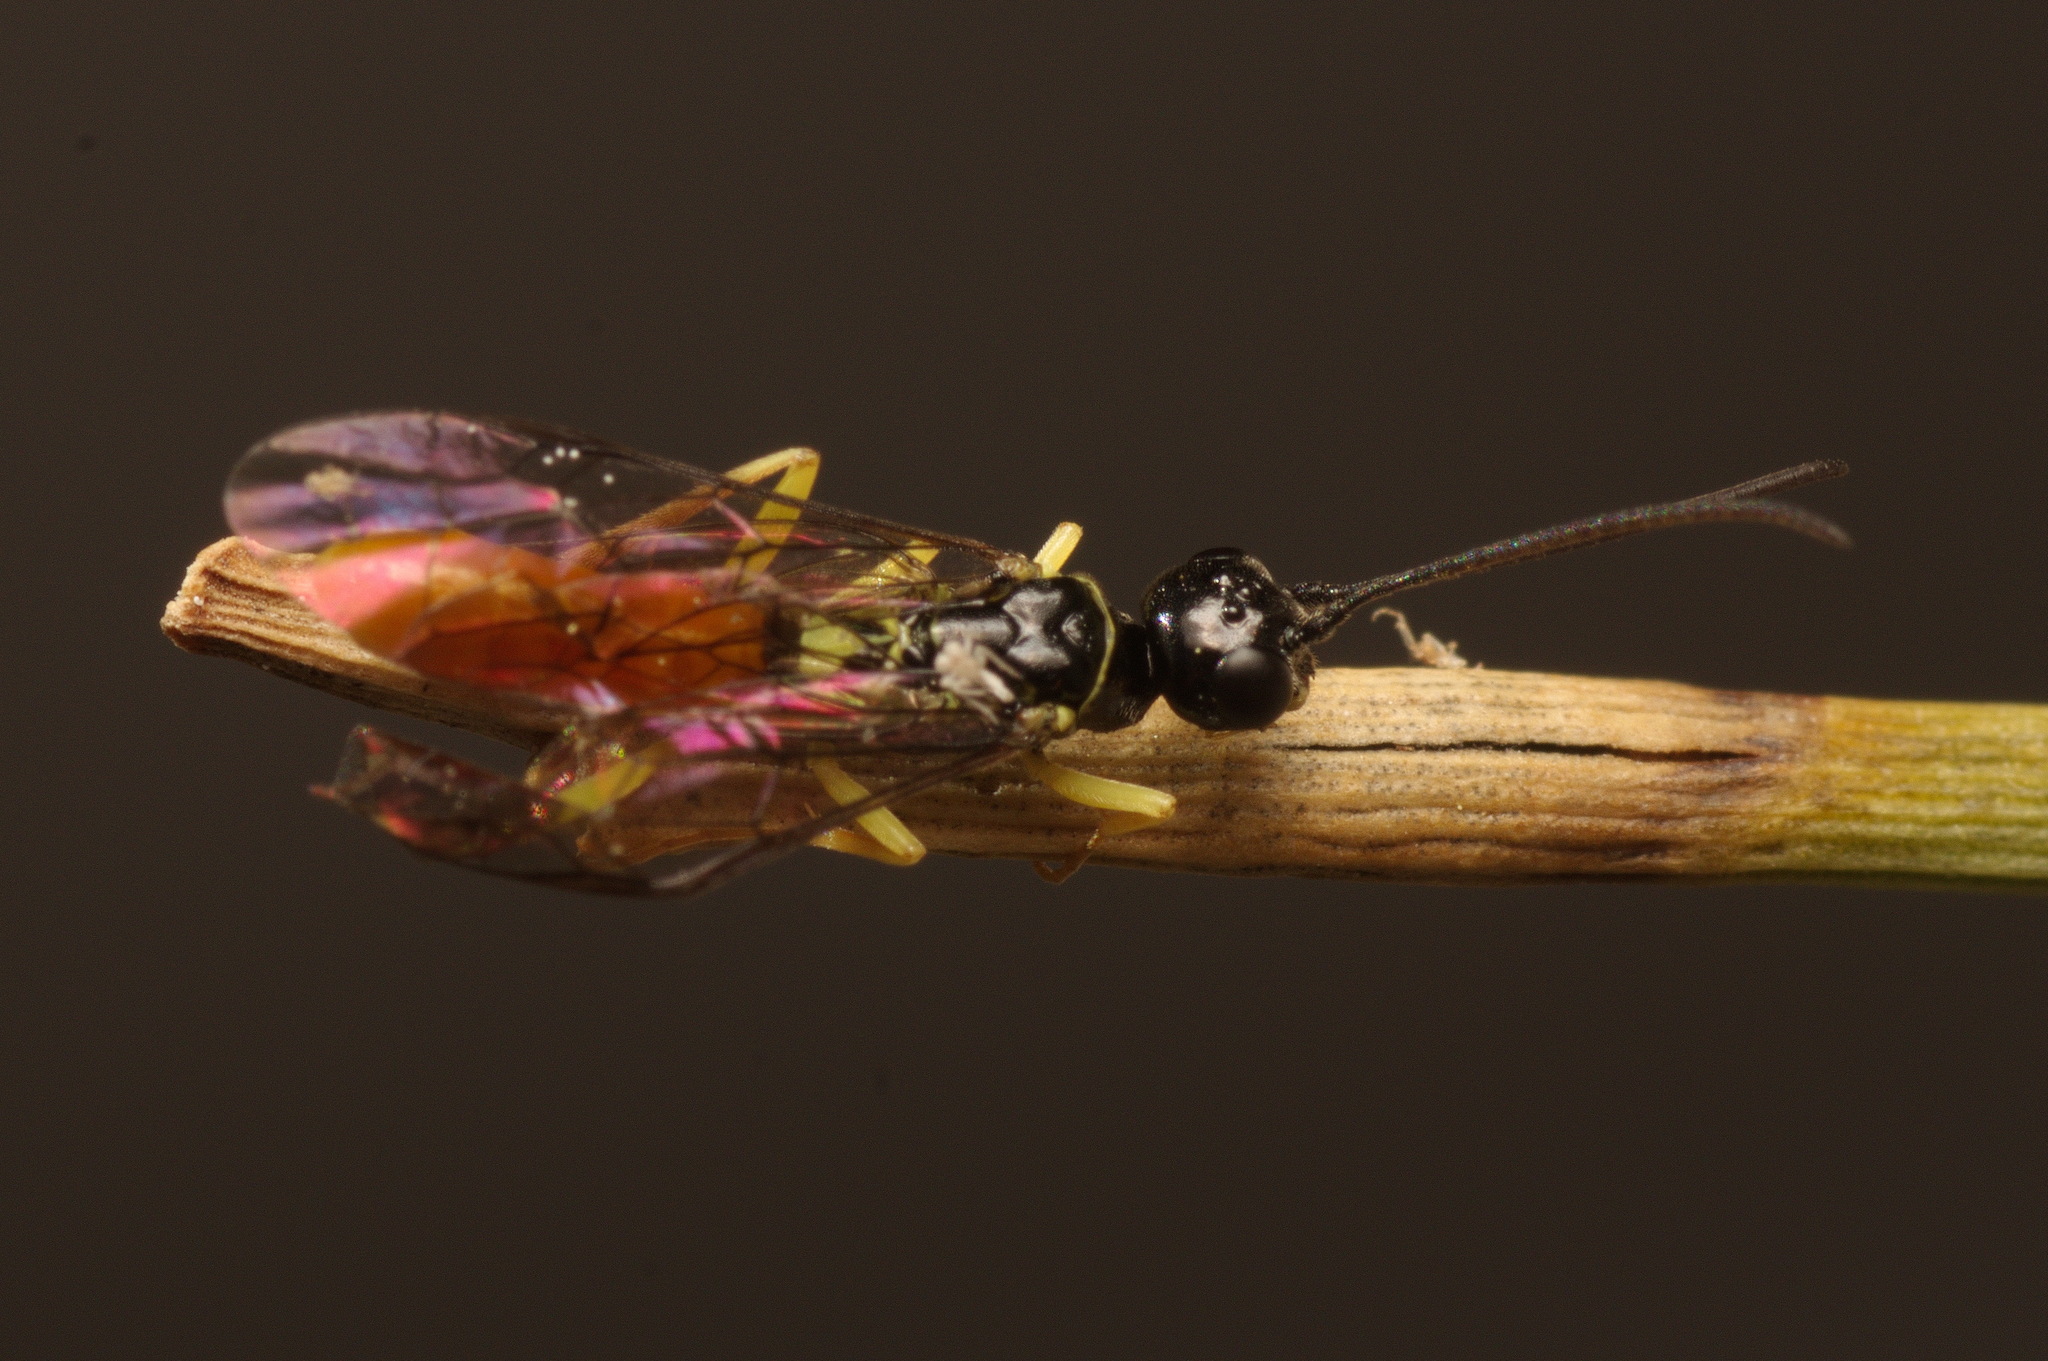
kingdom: Animalia
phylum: Arthropoda
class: Insecta
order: Hymenoptera
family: Cephidae
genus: Janus
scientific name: Janus compressus
